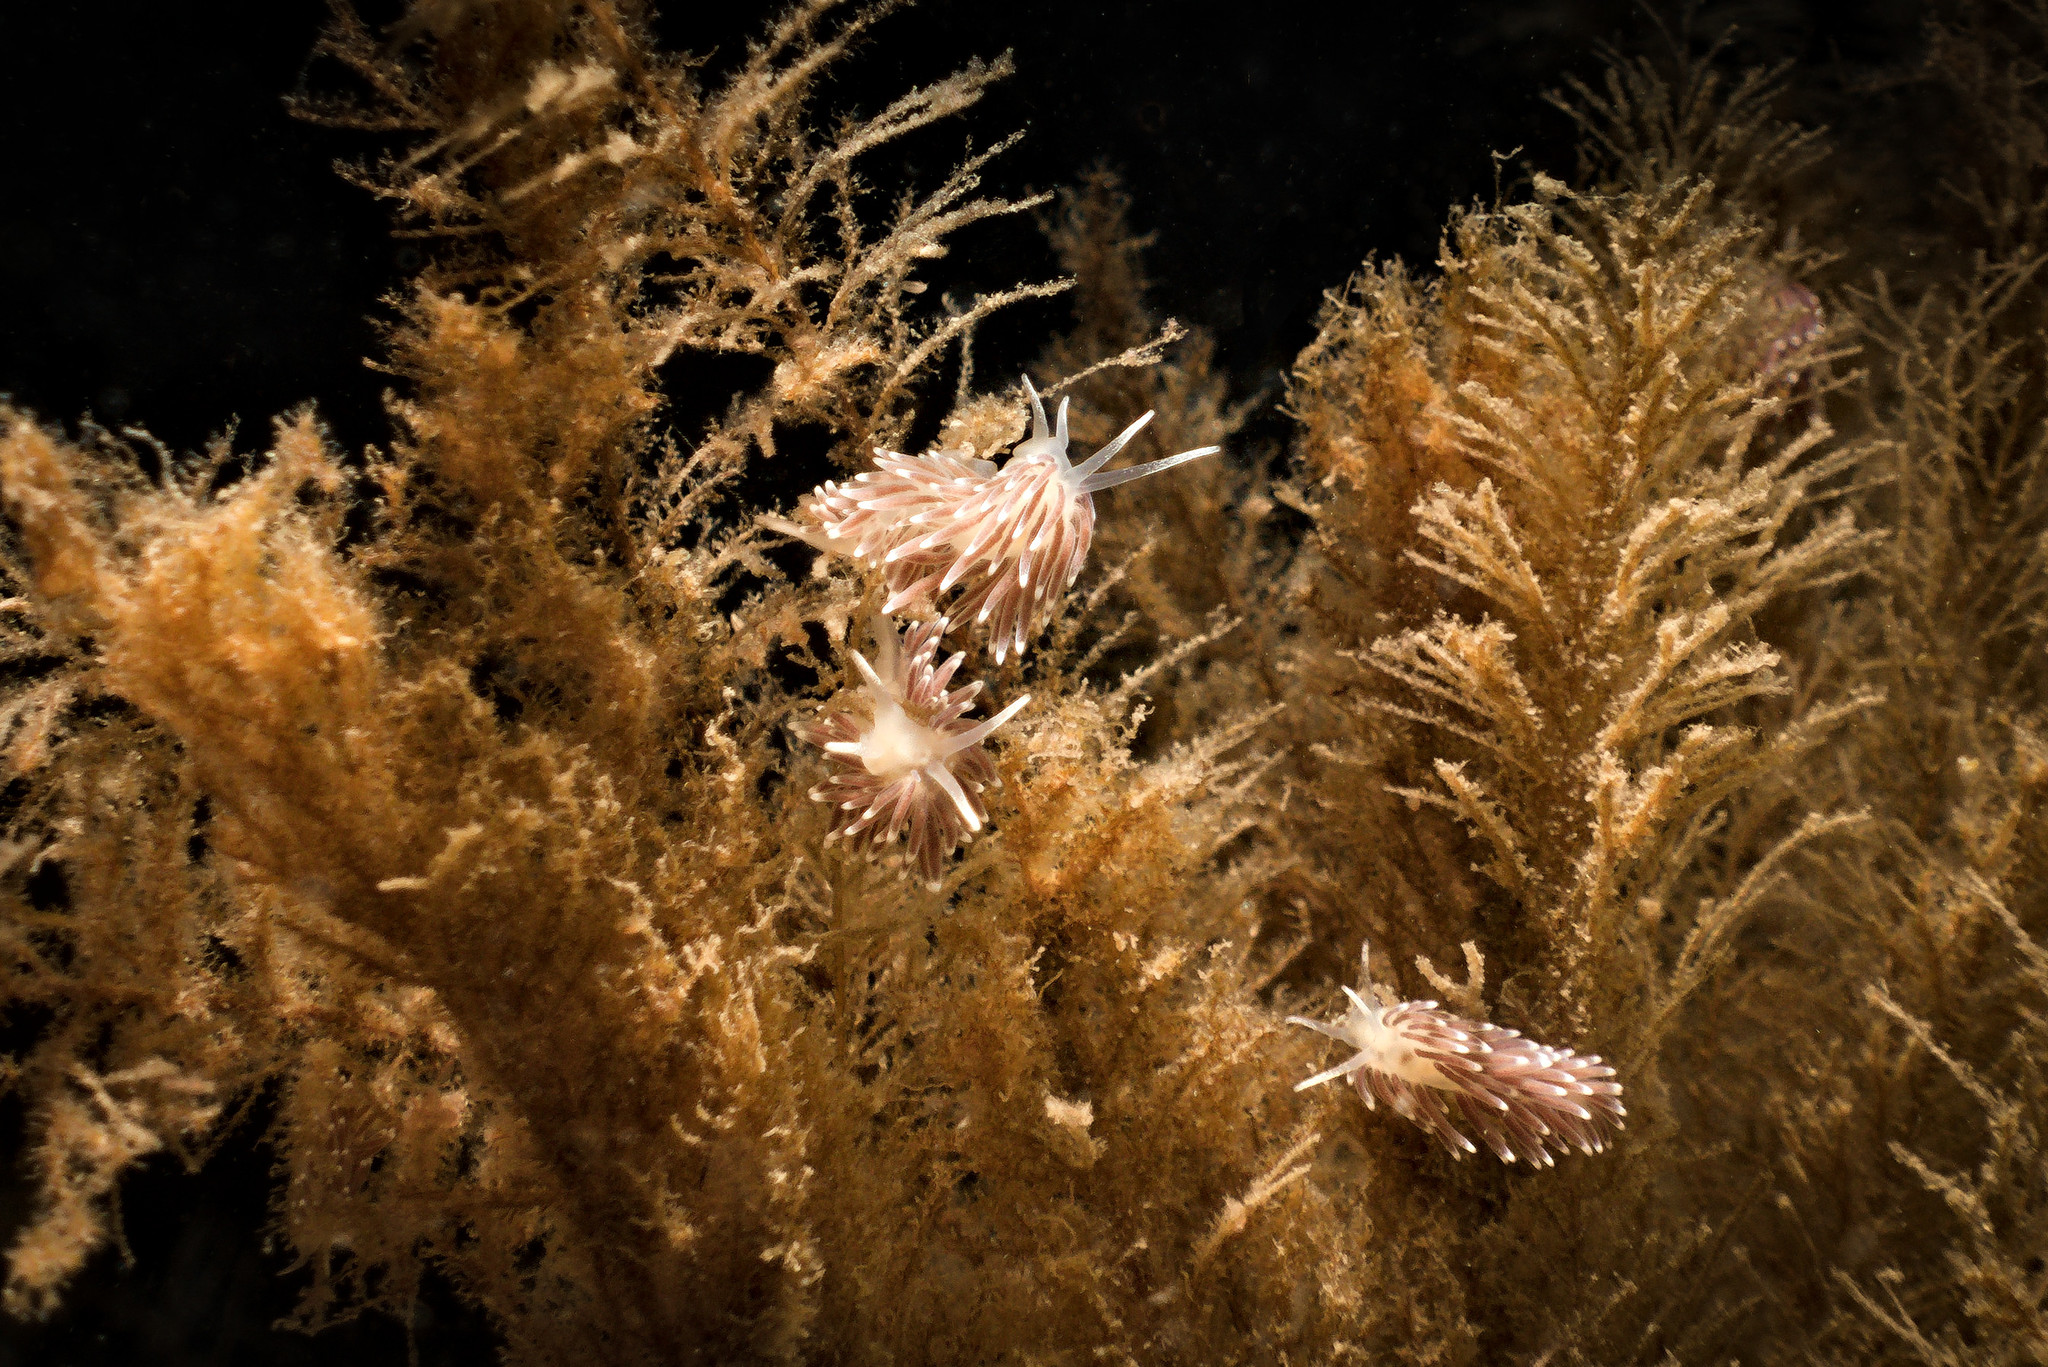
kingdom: Animalia
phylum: Mollusca
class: Gastropoda
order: Nudibranchia
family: Cuthonellidae
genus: Cuthonella
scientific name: Cuthonella concinna
